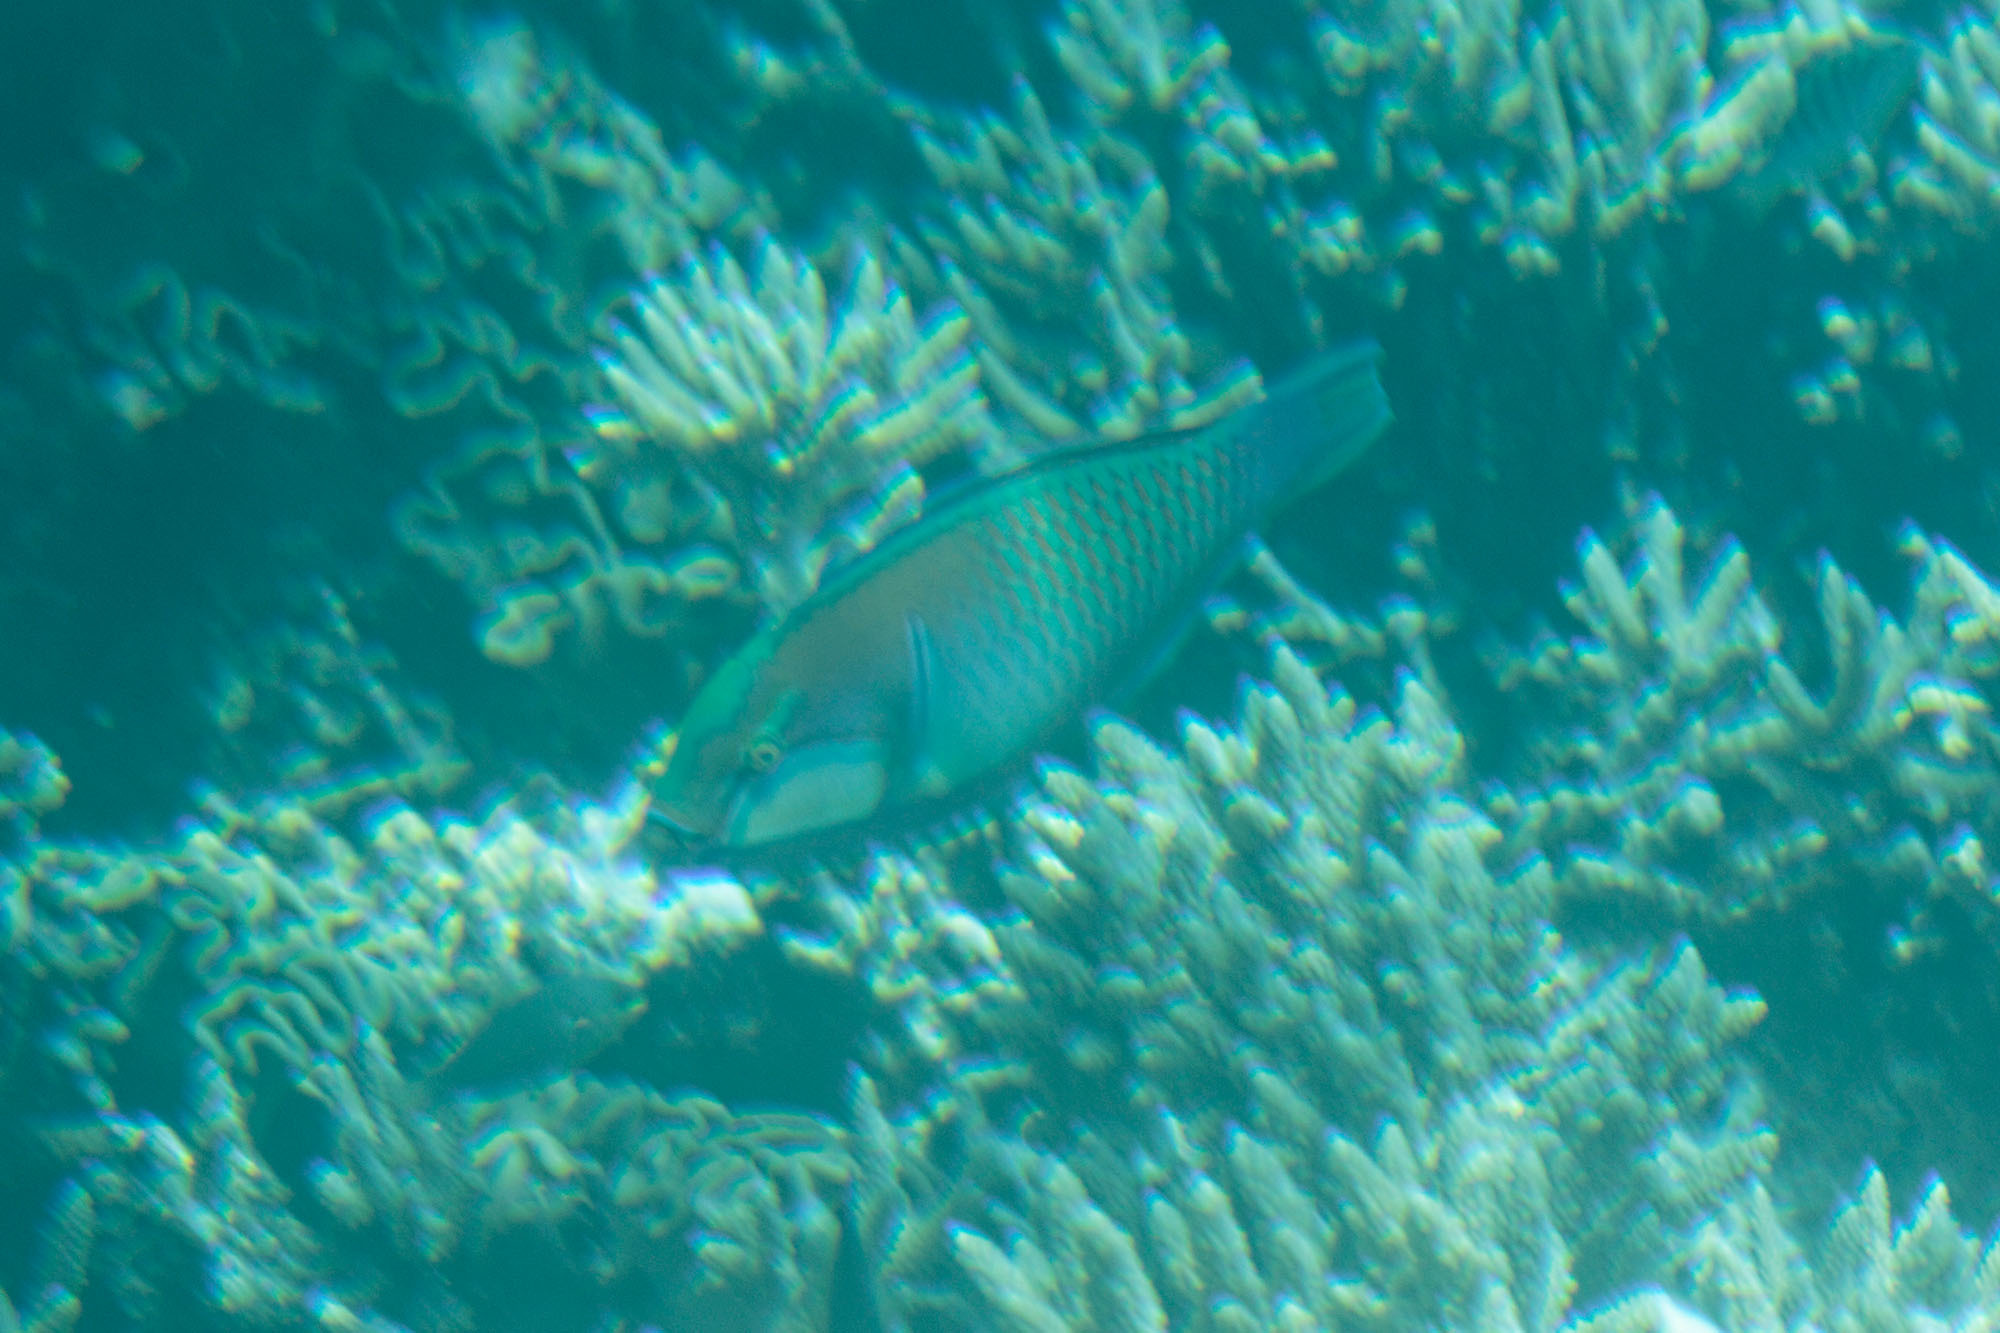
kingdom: Animalia
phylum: Chordata
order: Perciformes
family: Scaridae
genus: Chlorurus
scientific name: Chlorurus bleekeri
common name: Bleeker's parrotfish
